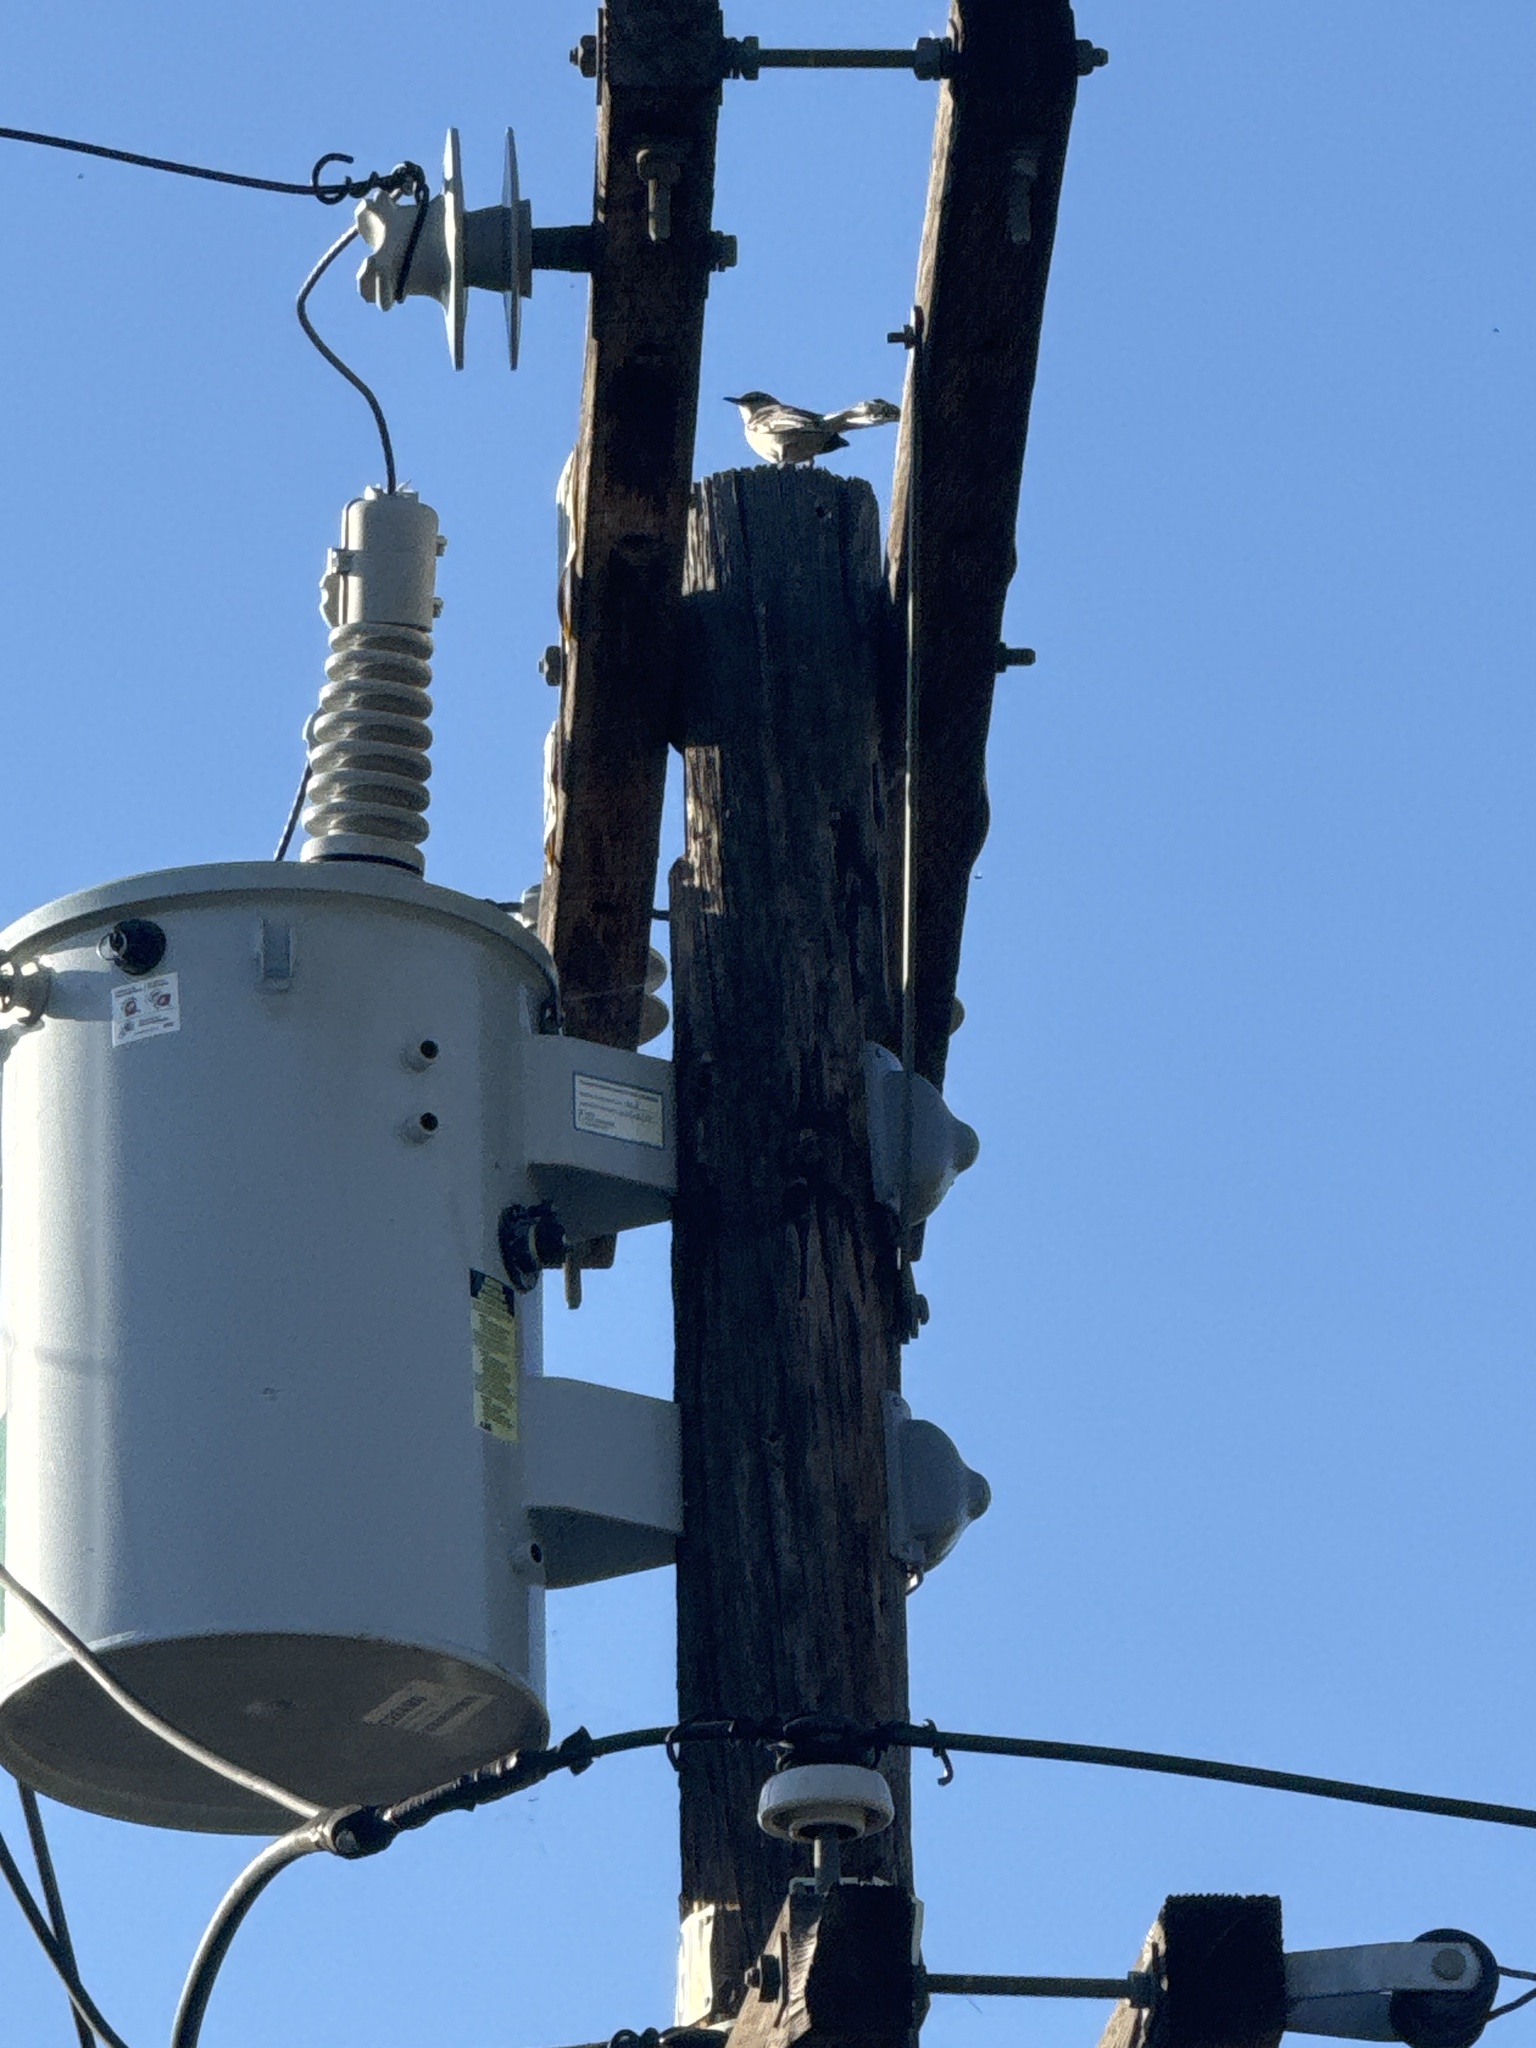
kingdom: Animalia
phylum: Chordata
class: Aves
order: Passeriformes
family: Mimidae
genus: Mimus
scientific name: Mimus polyglottos
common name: Northern mockingbird
